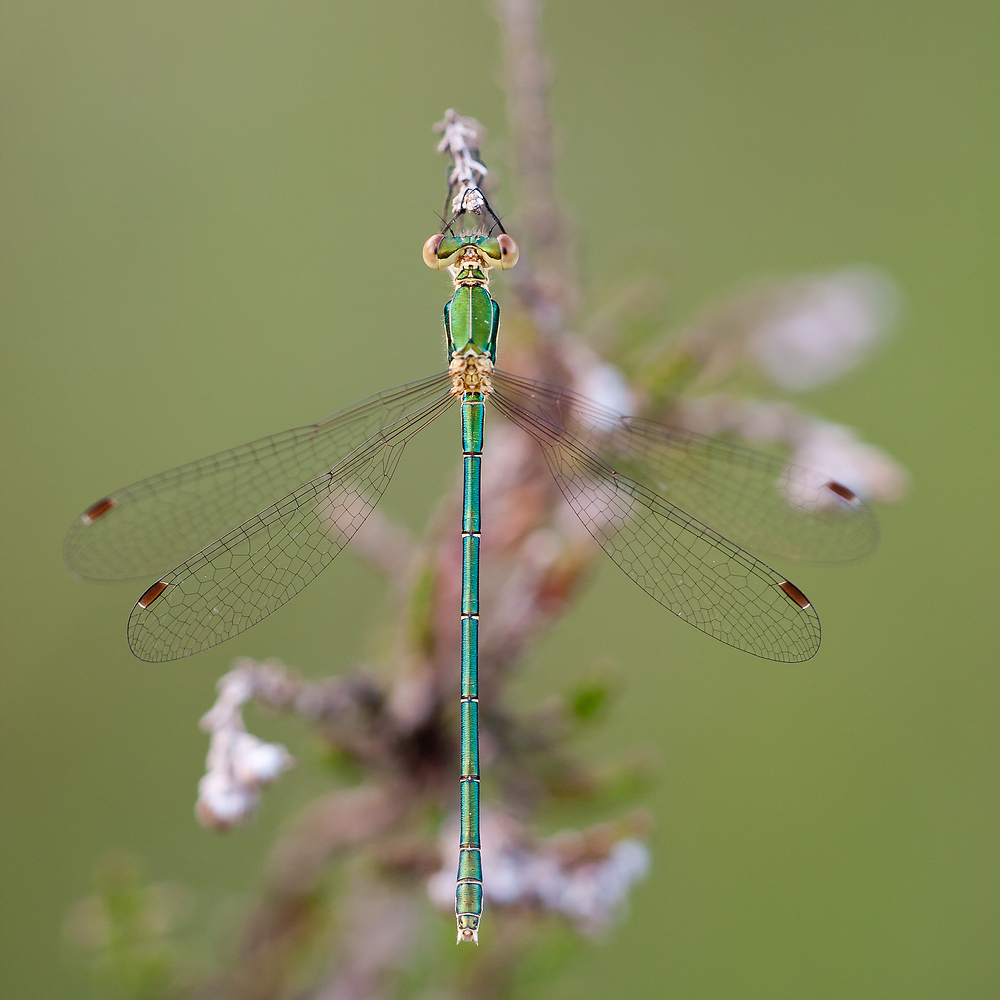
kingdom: Animalia
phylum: Arthropoda
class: Insecta
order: Odonata
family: Lestidae
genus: Lestes
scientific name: Lestes virens
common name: Small emerald spreadwing
